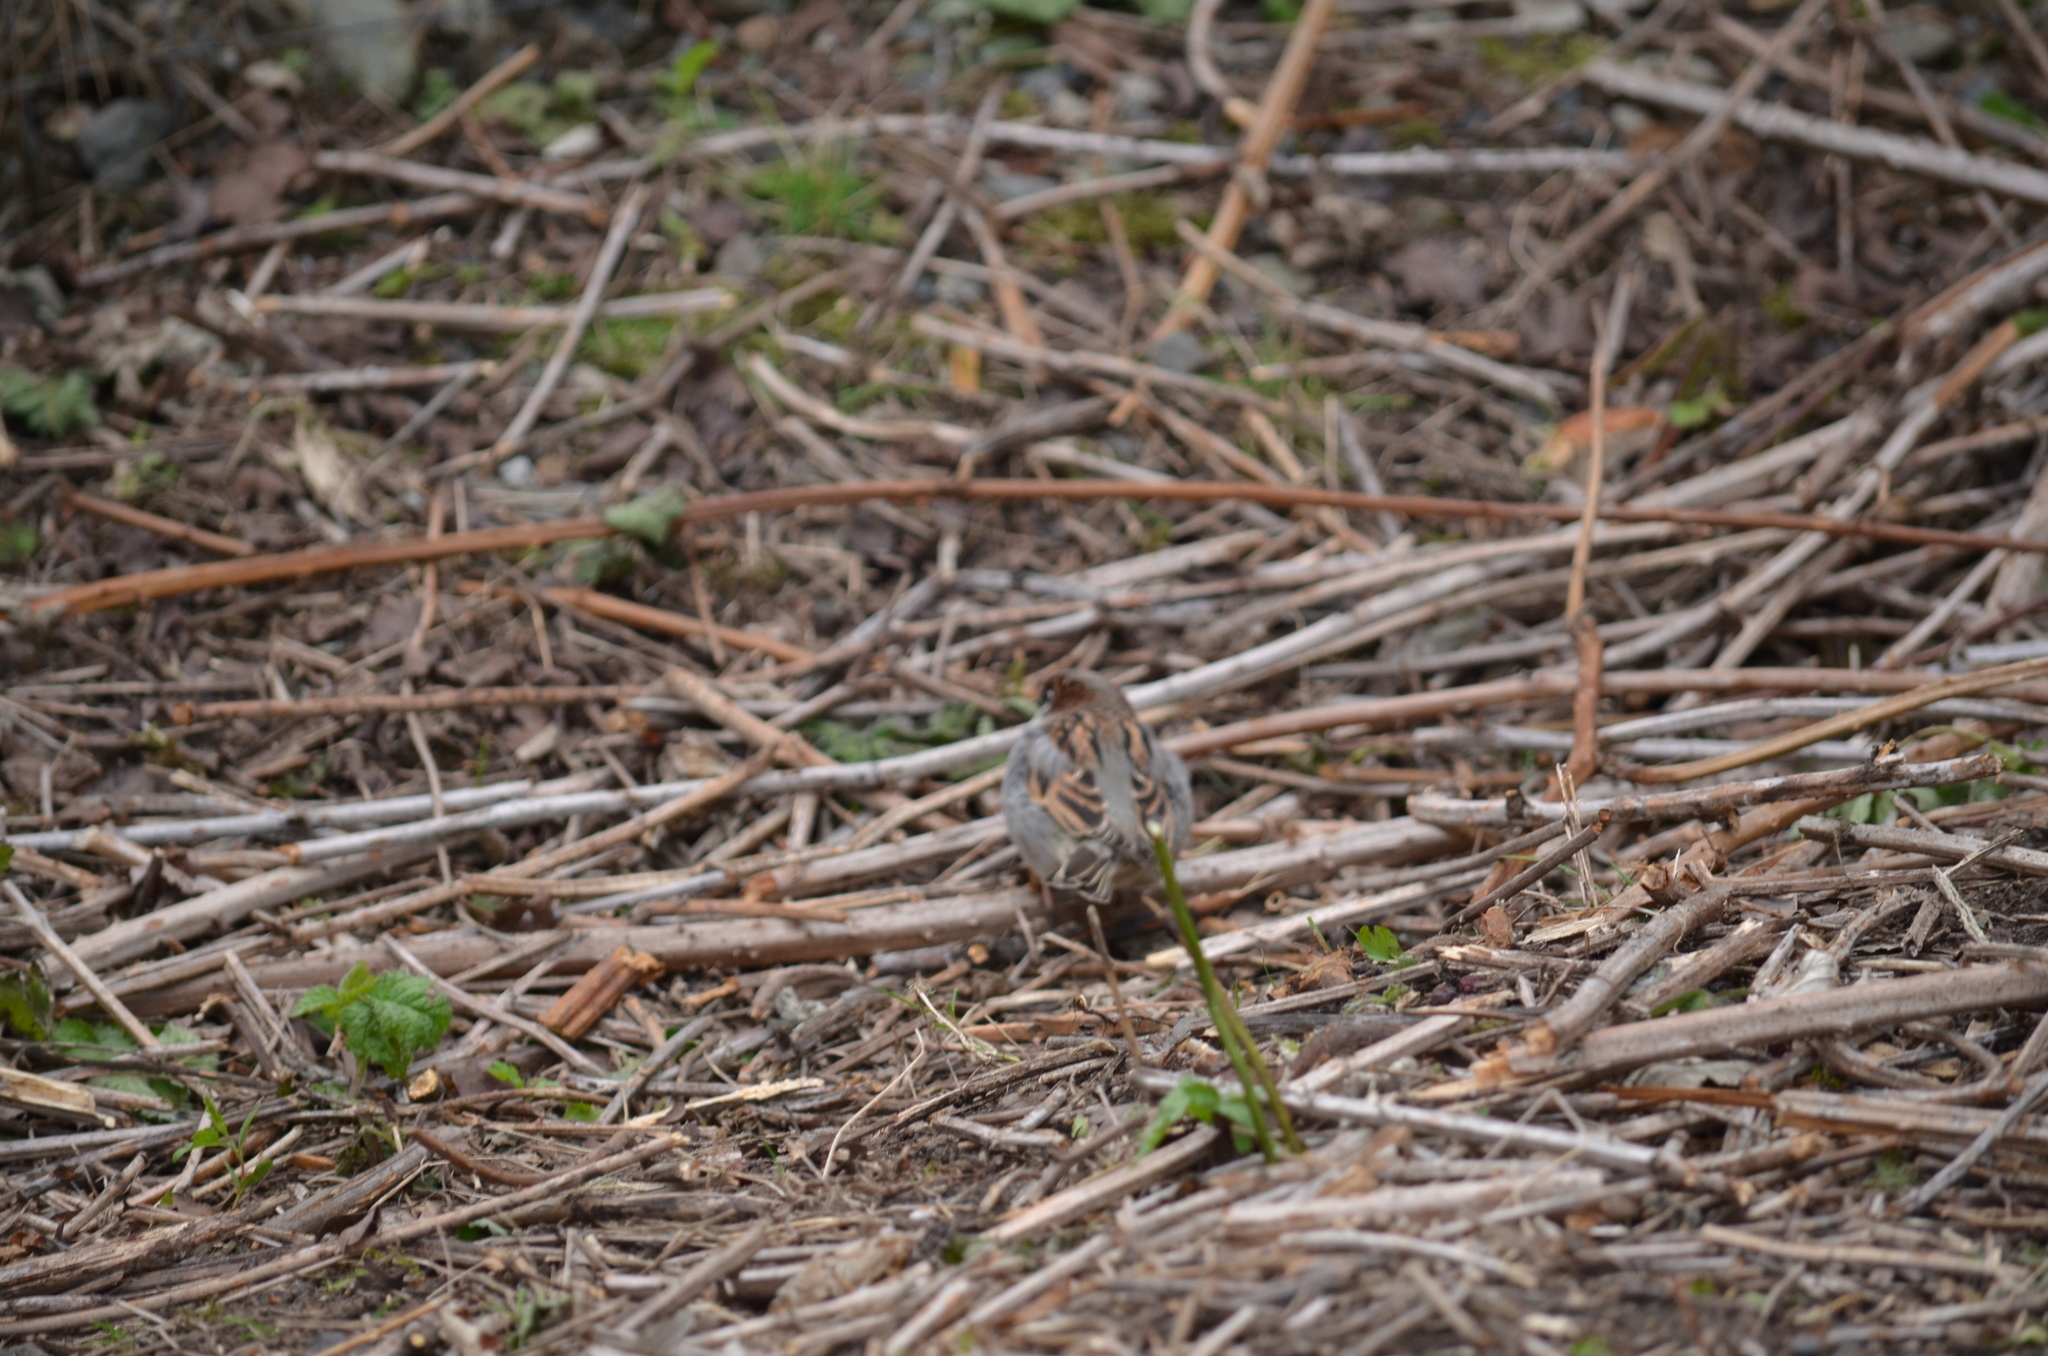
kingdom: Animalia
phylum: Chordata
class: Aves
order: Passeriformes
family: Passeridae
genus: Passer
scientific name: Passer domesticus
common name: House sparrow
